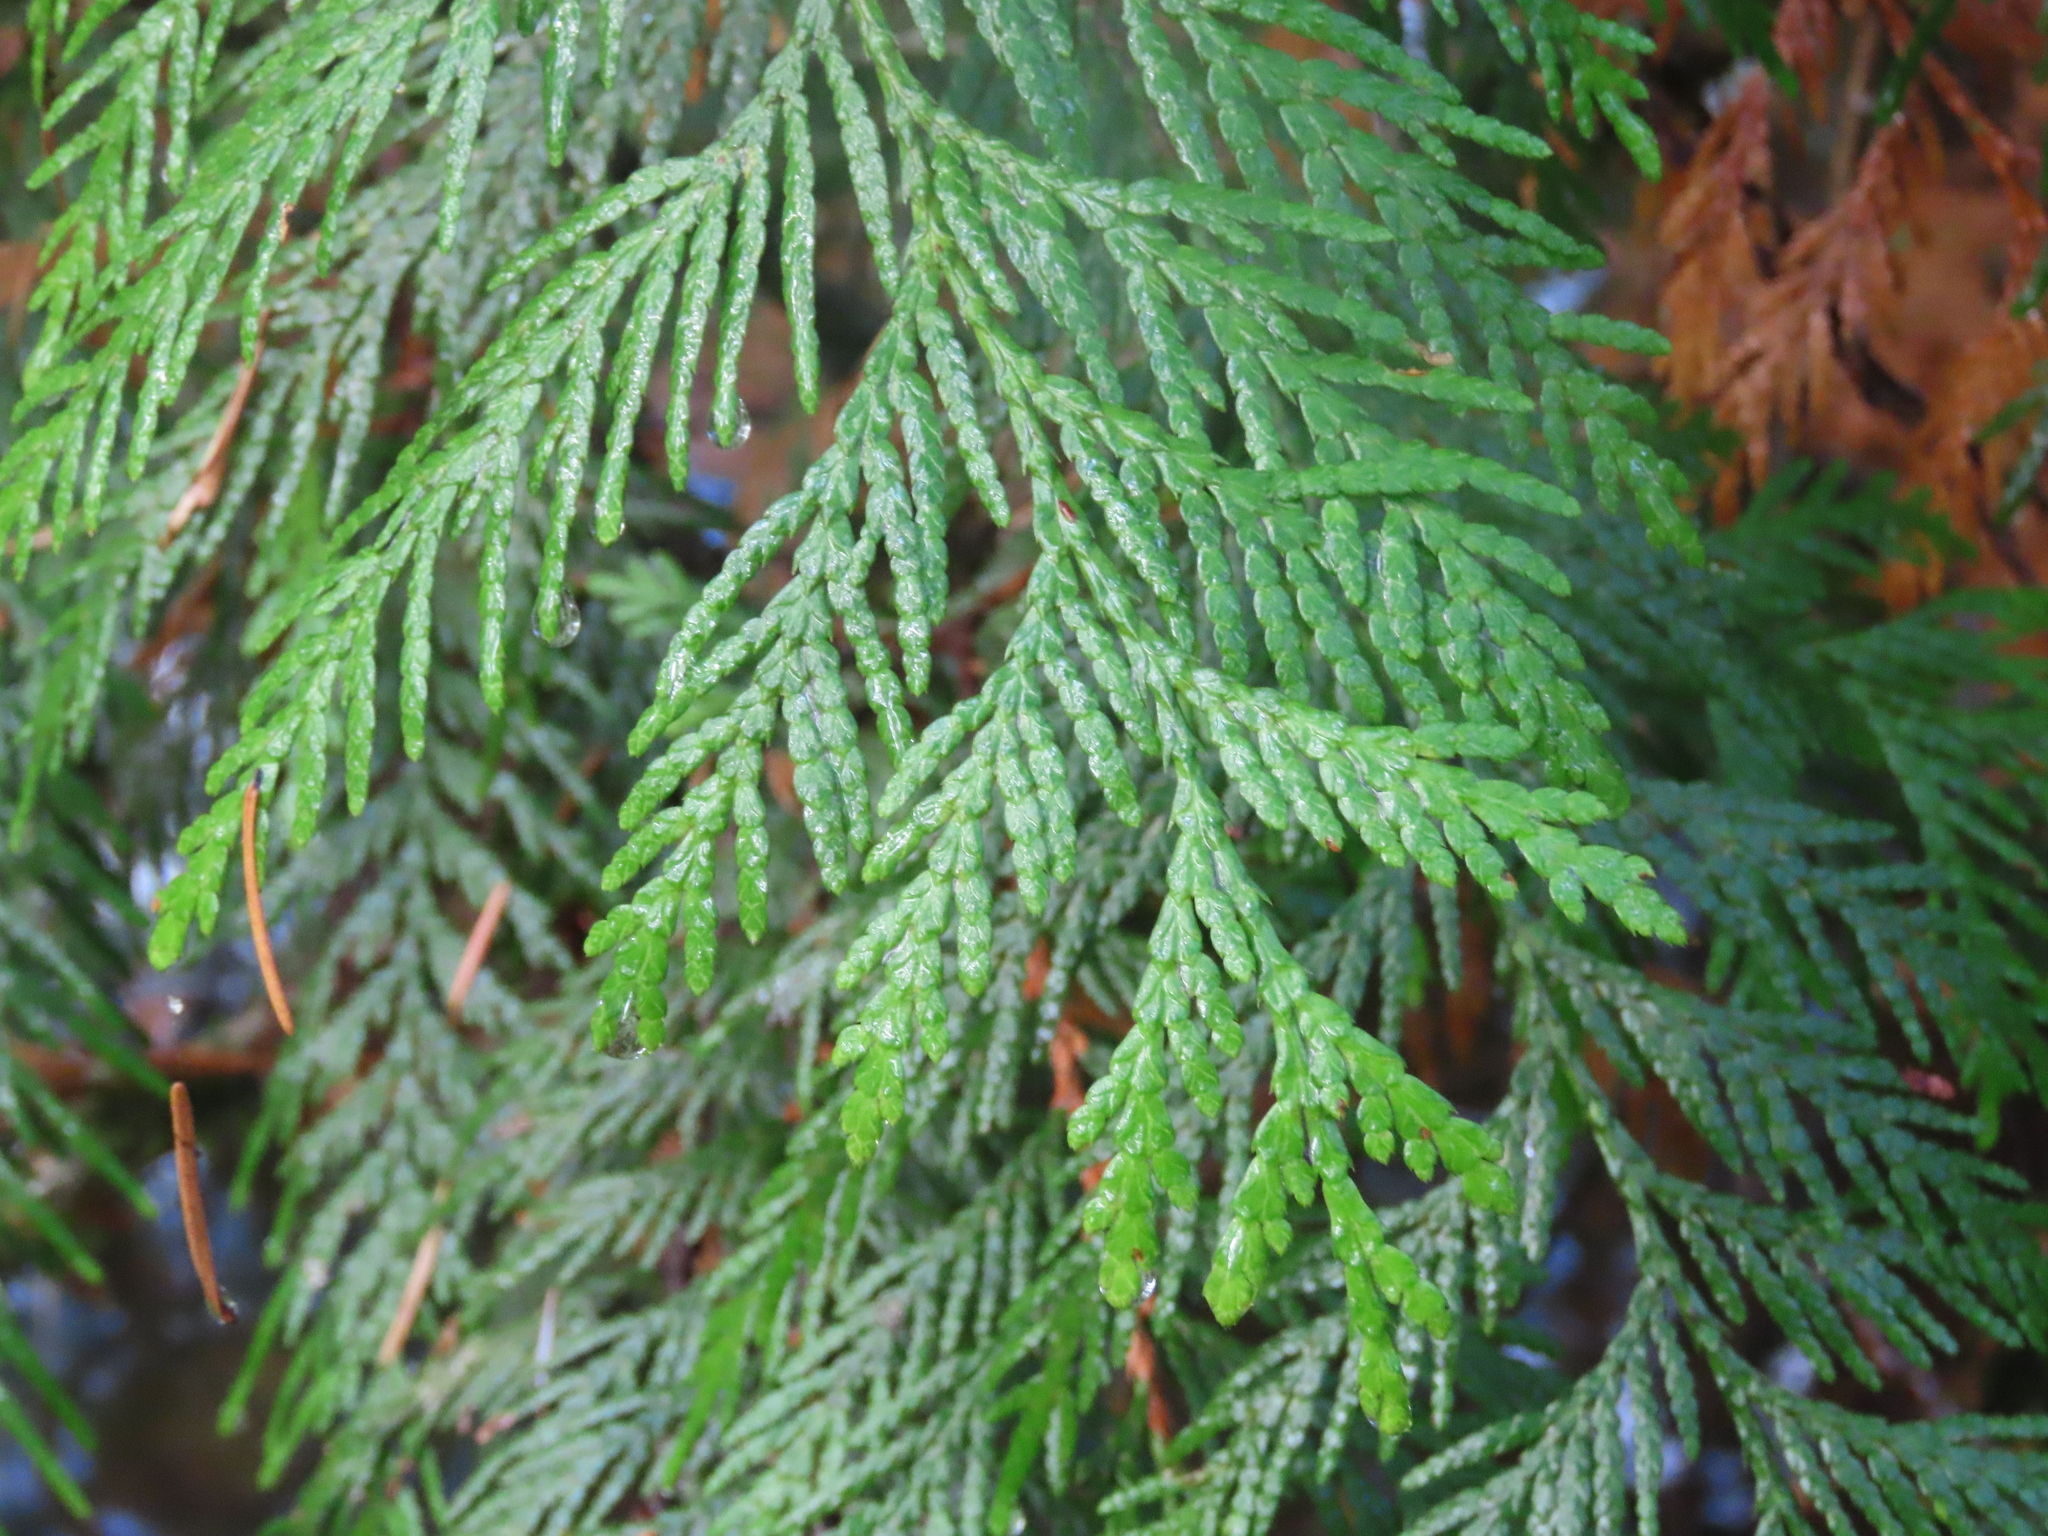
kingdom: Plantae
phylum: Tracheophyta
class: Pinopsida
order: Pinales
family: Cupressaceae
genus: Thuja
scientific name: Thuja plicata
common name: Western red-cedar
